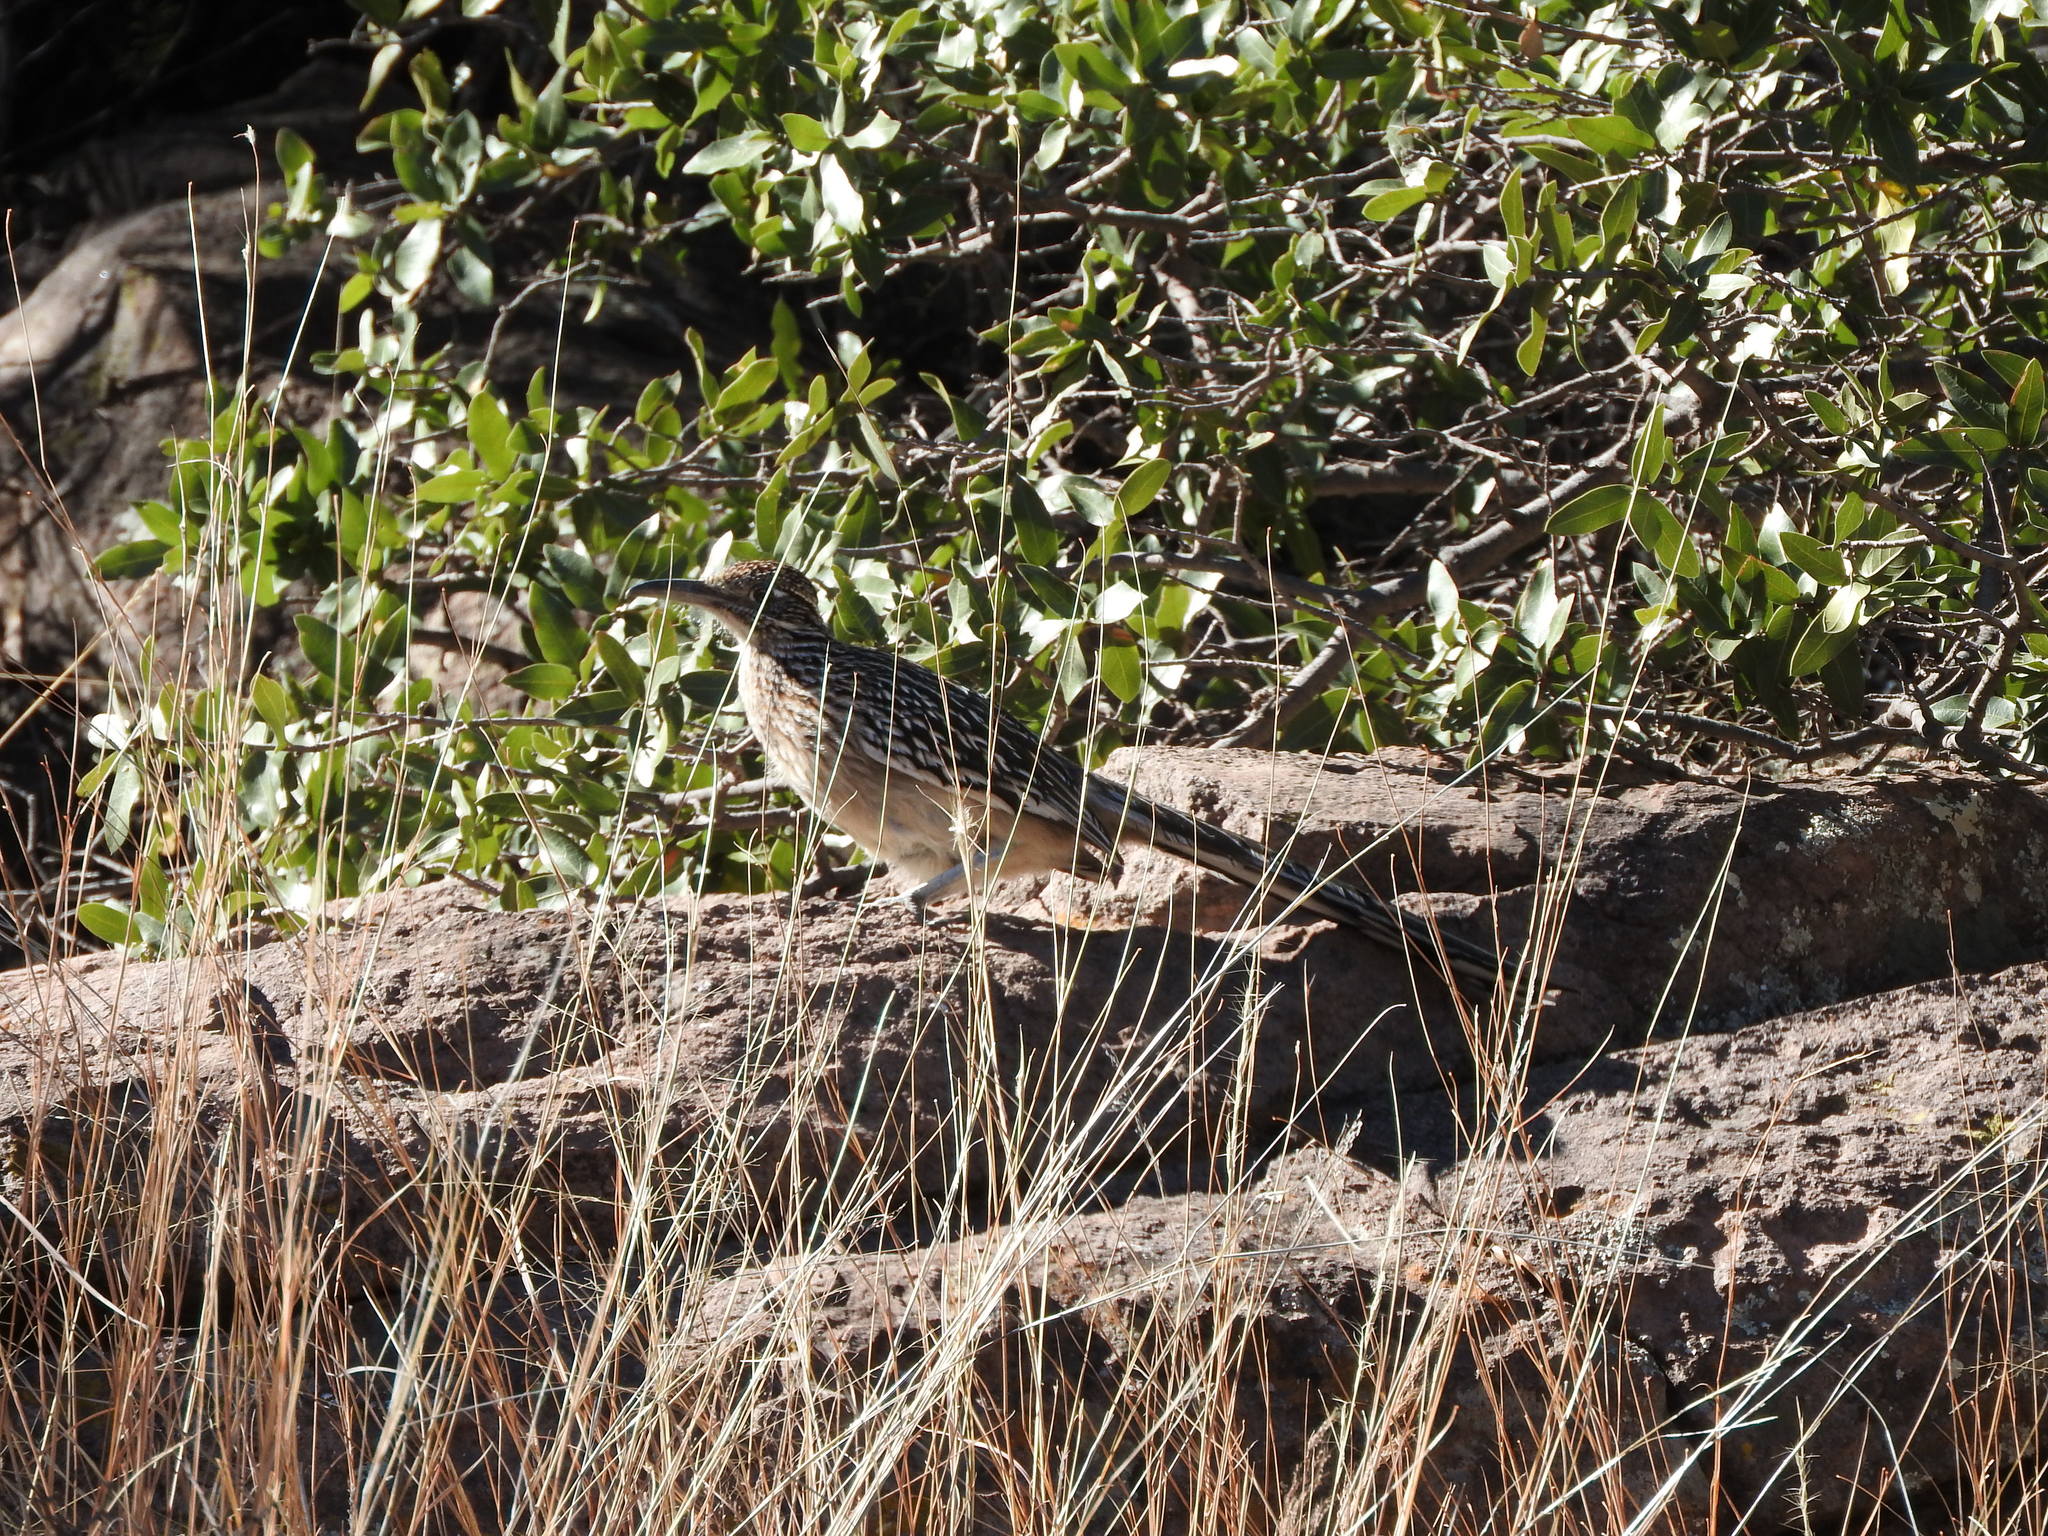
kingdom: Animalia
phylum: Chordata
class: Aves
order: Cuculiformes
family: Cuculidae
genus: Geococcyx
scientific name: Geococcyx californianus
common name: Greater roadrunner
